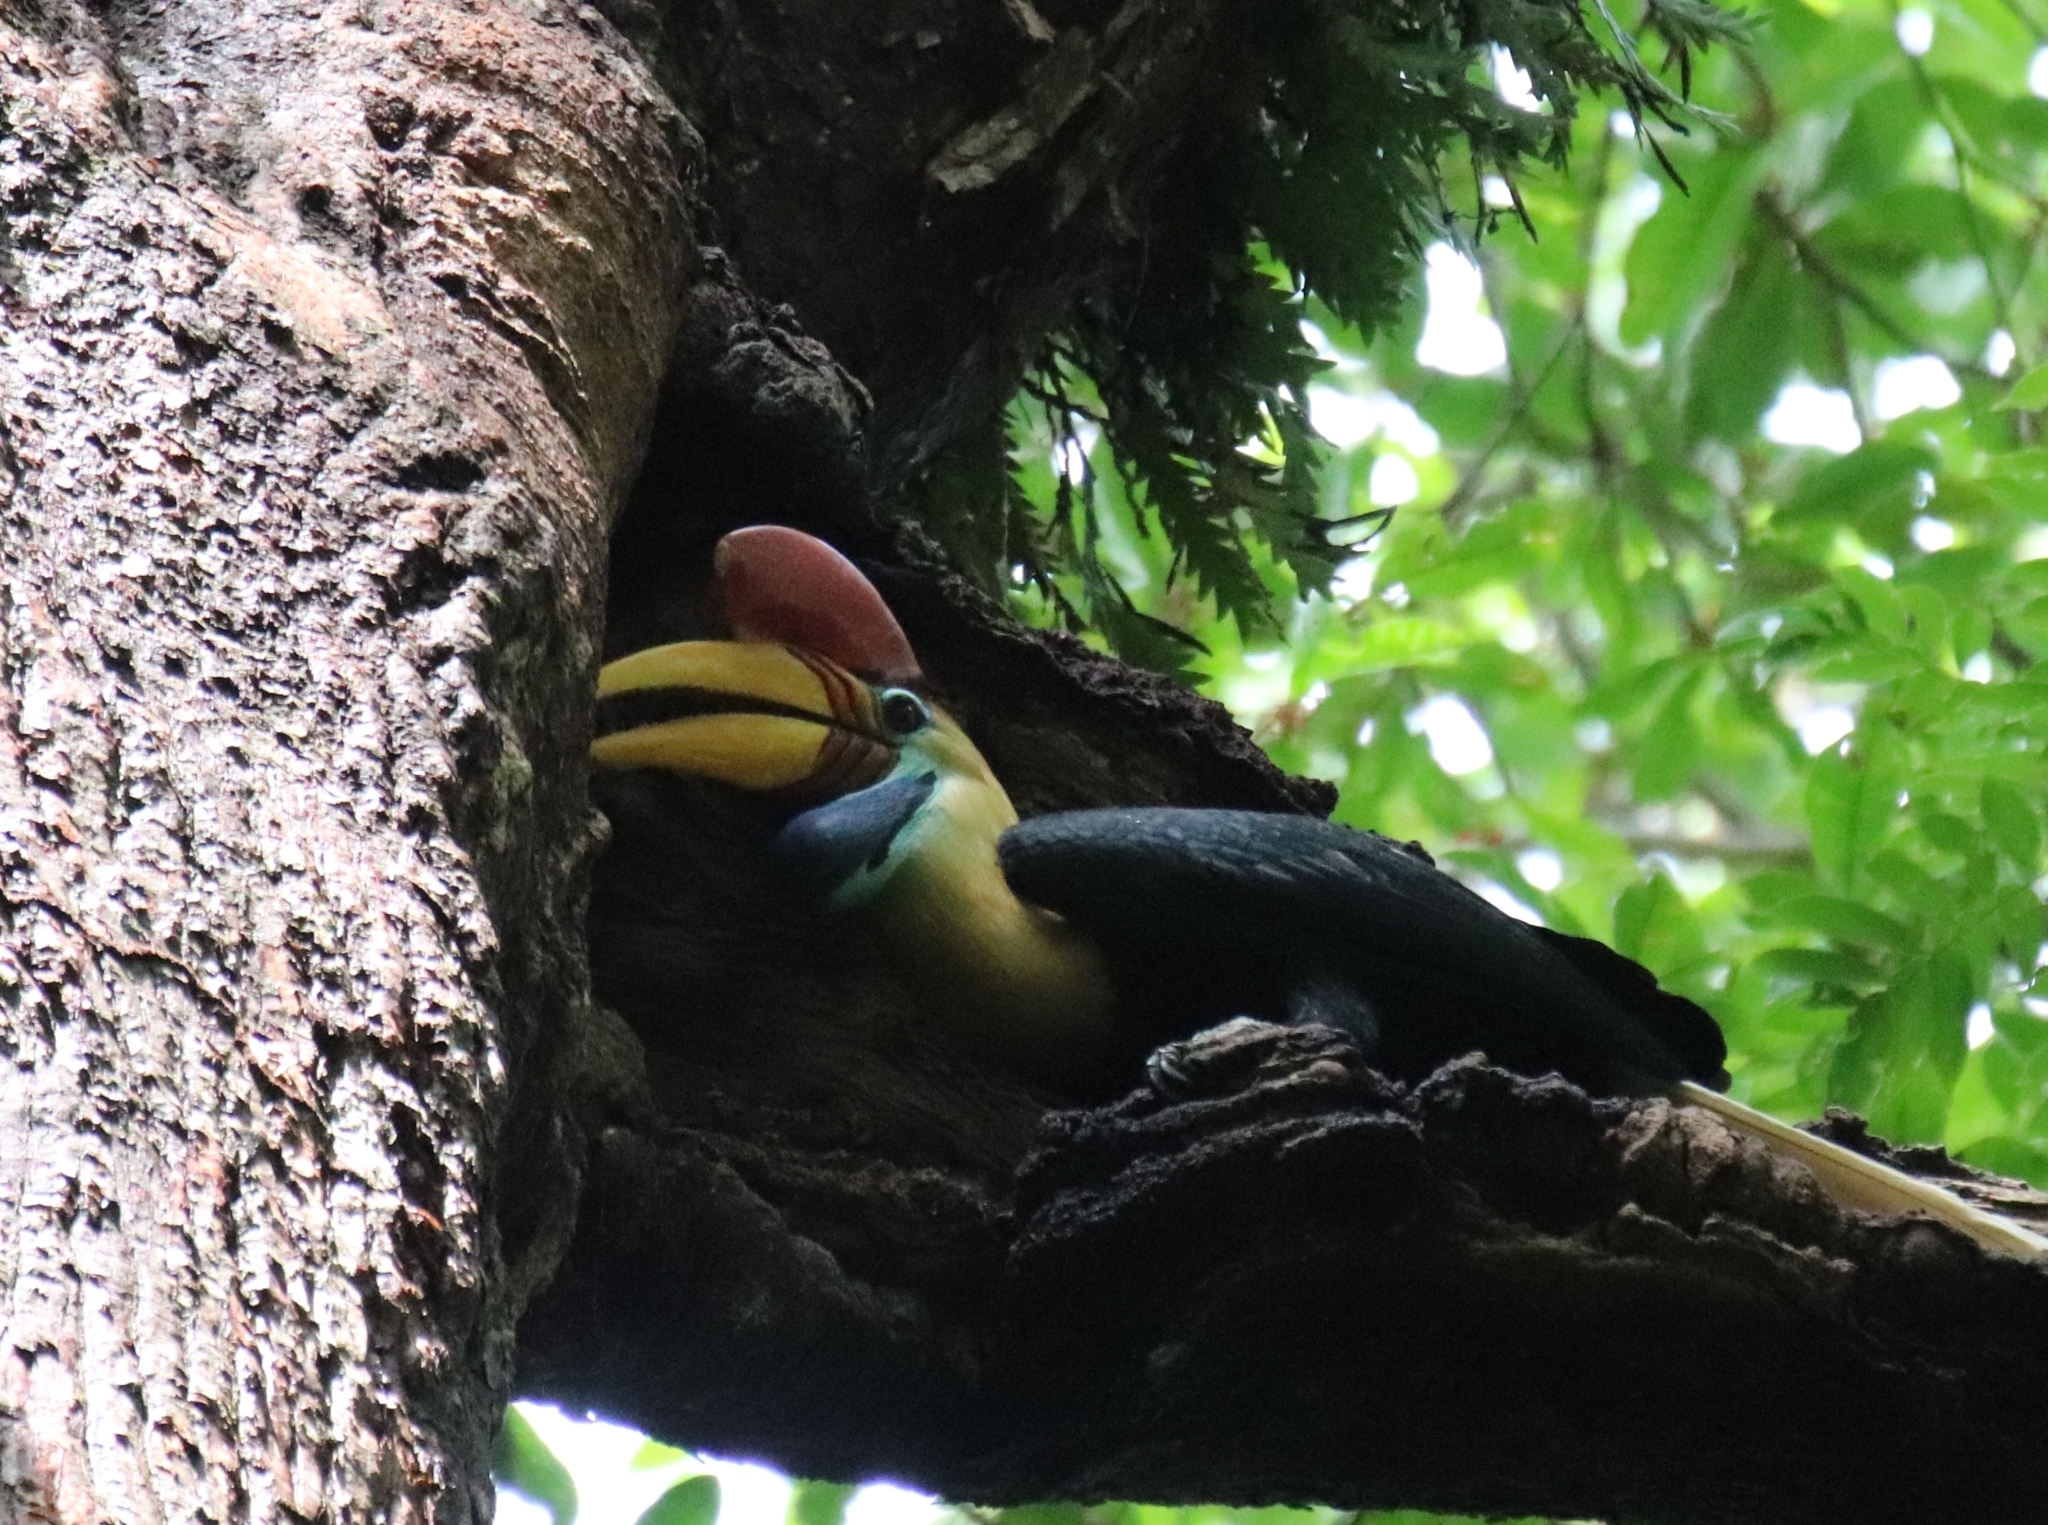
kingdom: Animalia
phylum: Chordata
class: Aves
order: Bucerotiformes
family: Bucerotidae
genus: Rhyticeros
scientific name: Rhyticeros cassidix
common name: Knobbed hornbill
